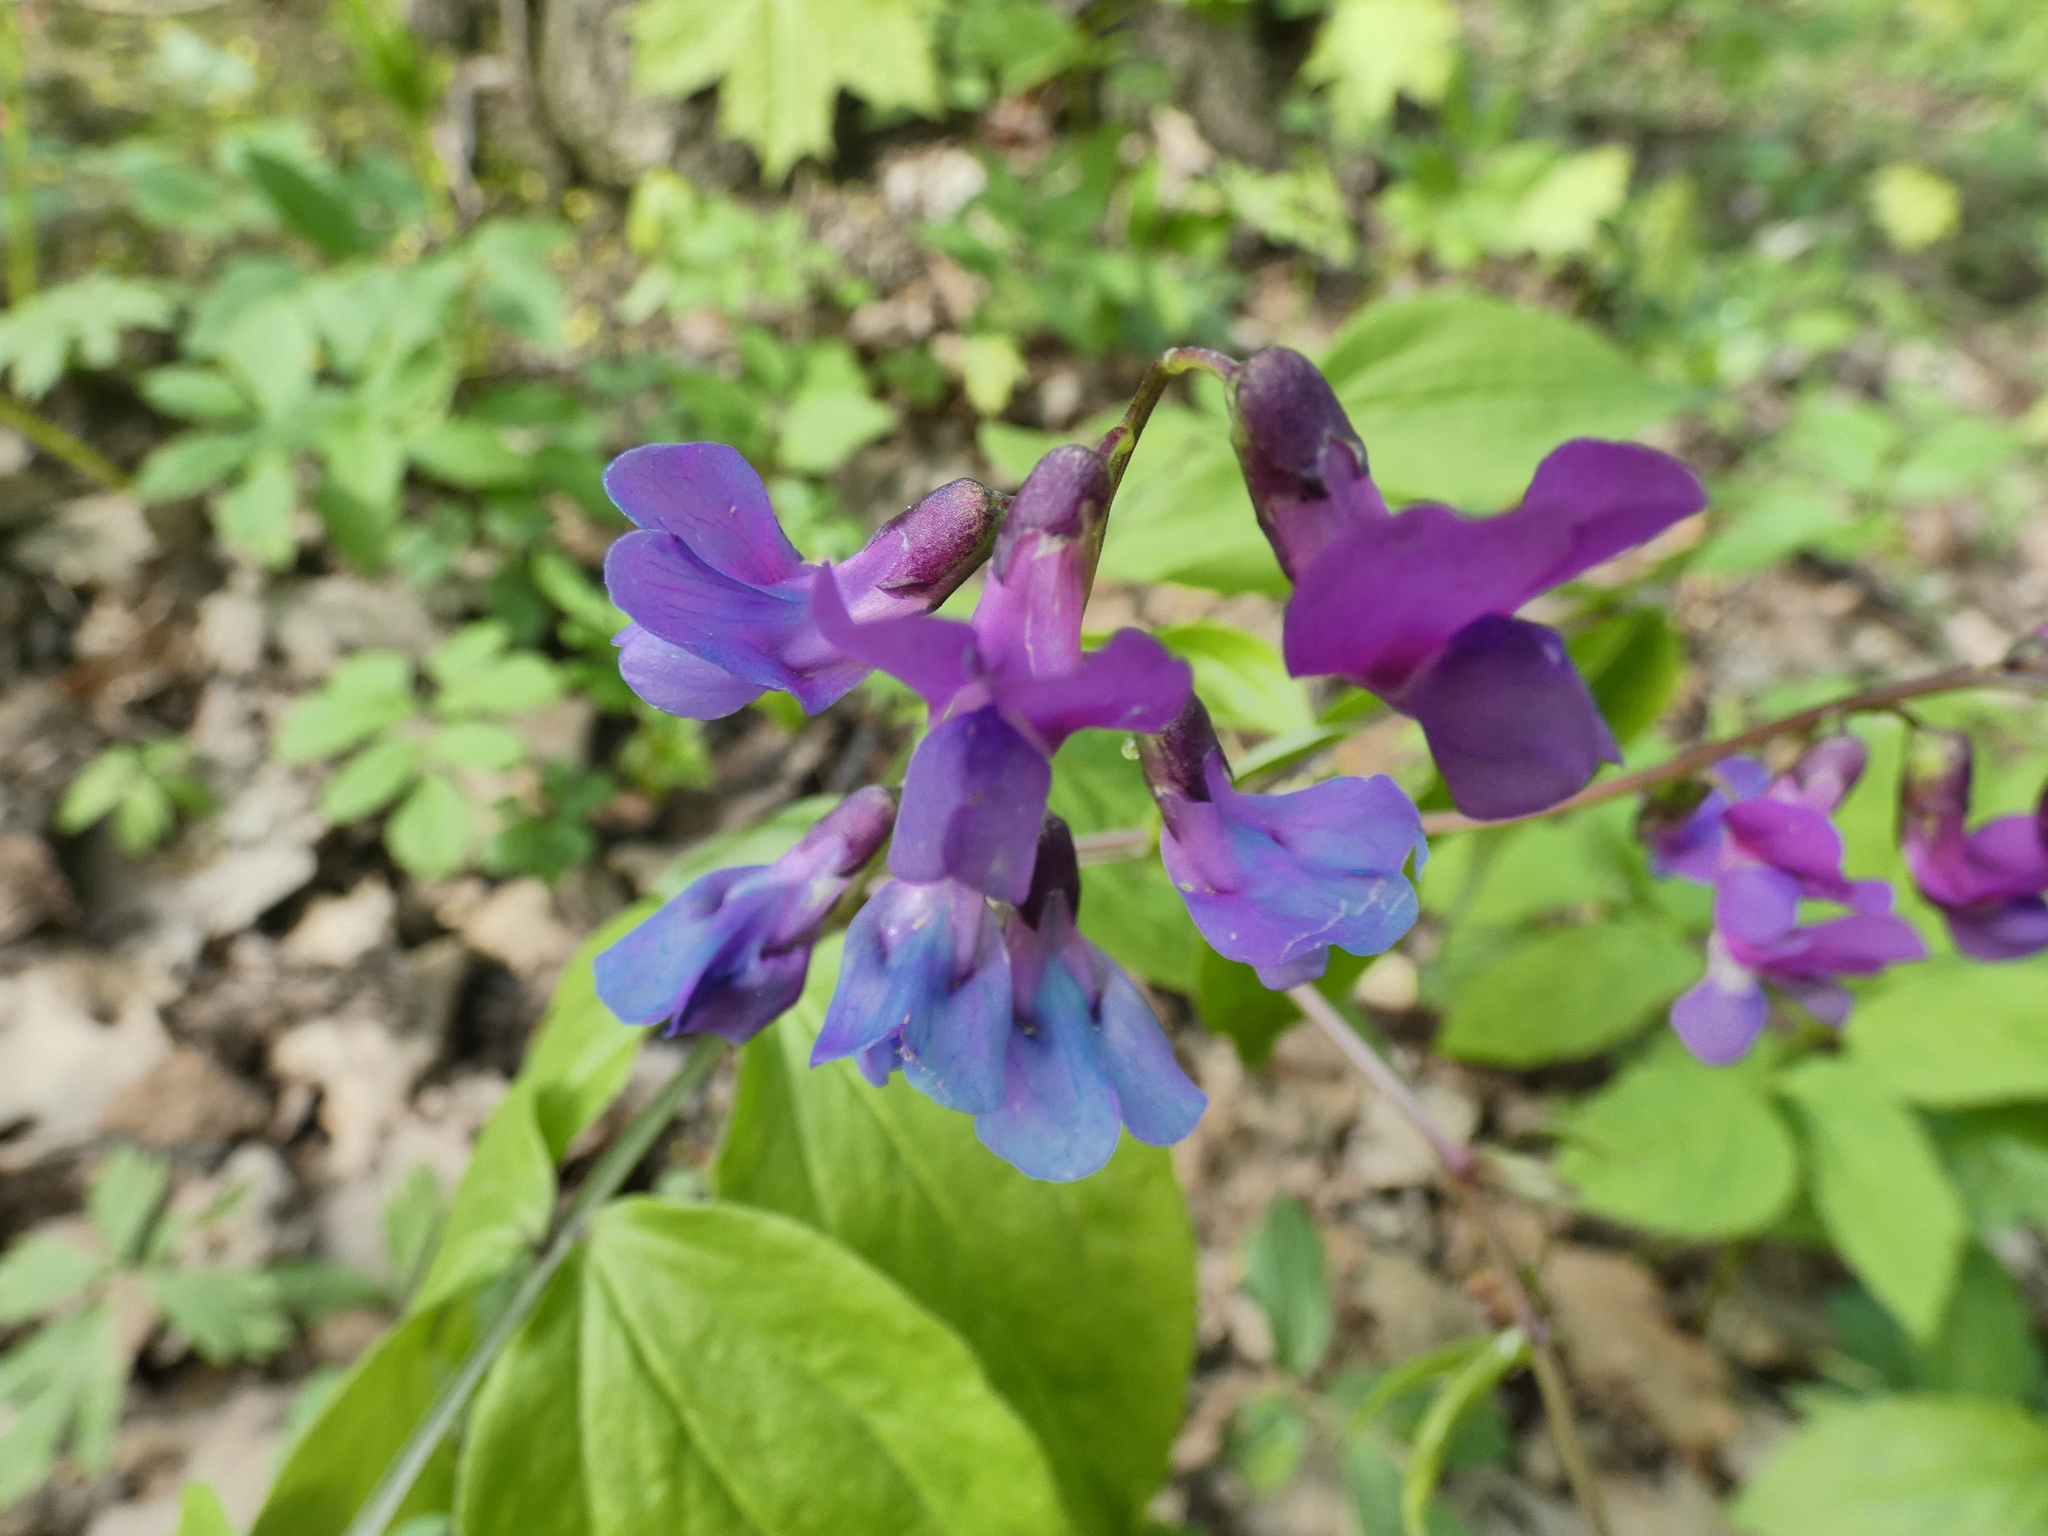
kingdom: Plantae
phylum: Tracheophyta
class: Magnoliopsida
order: Fabales
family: Fabaceae
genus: Lathyrus
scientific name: Lathyrus vernus
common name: Spring pea
